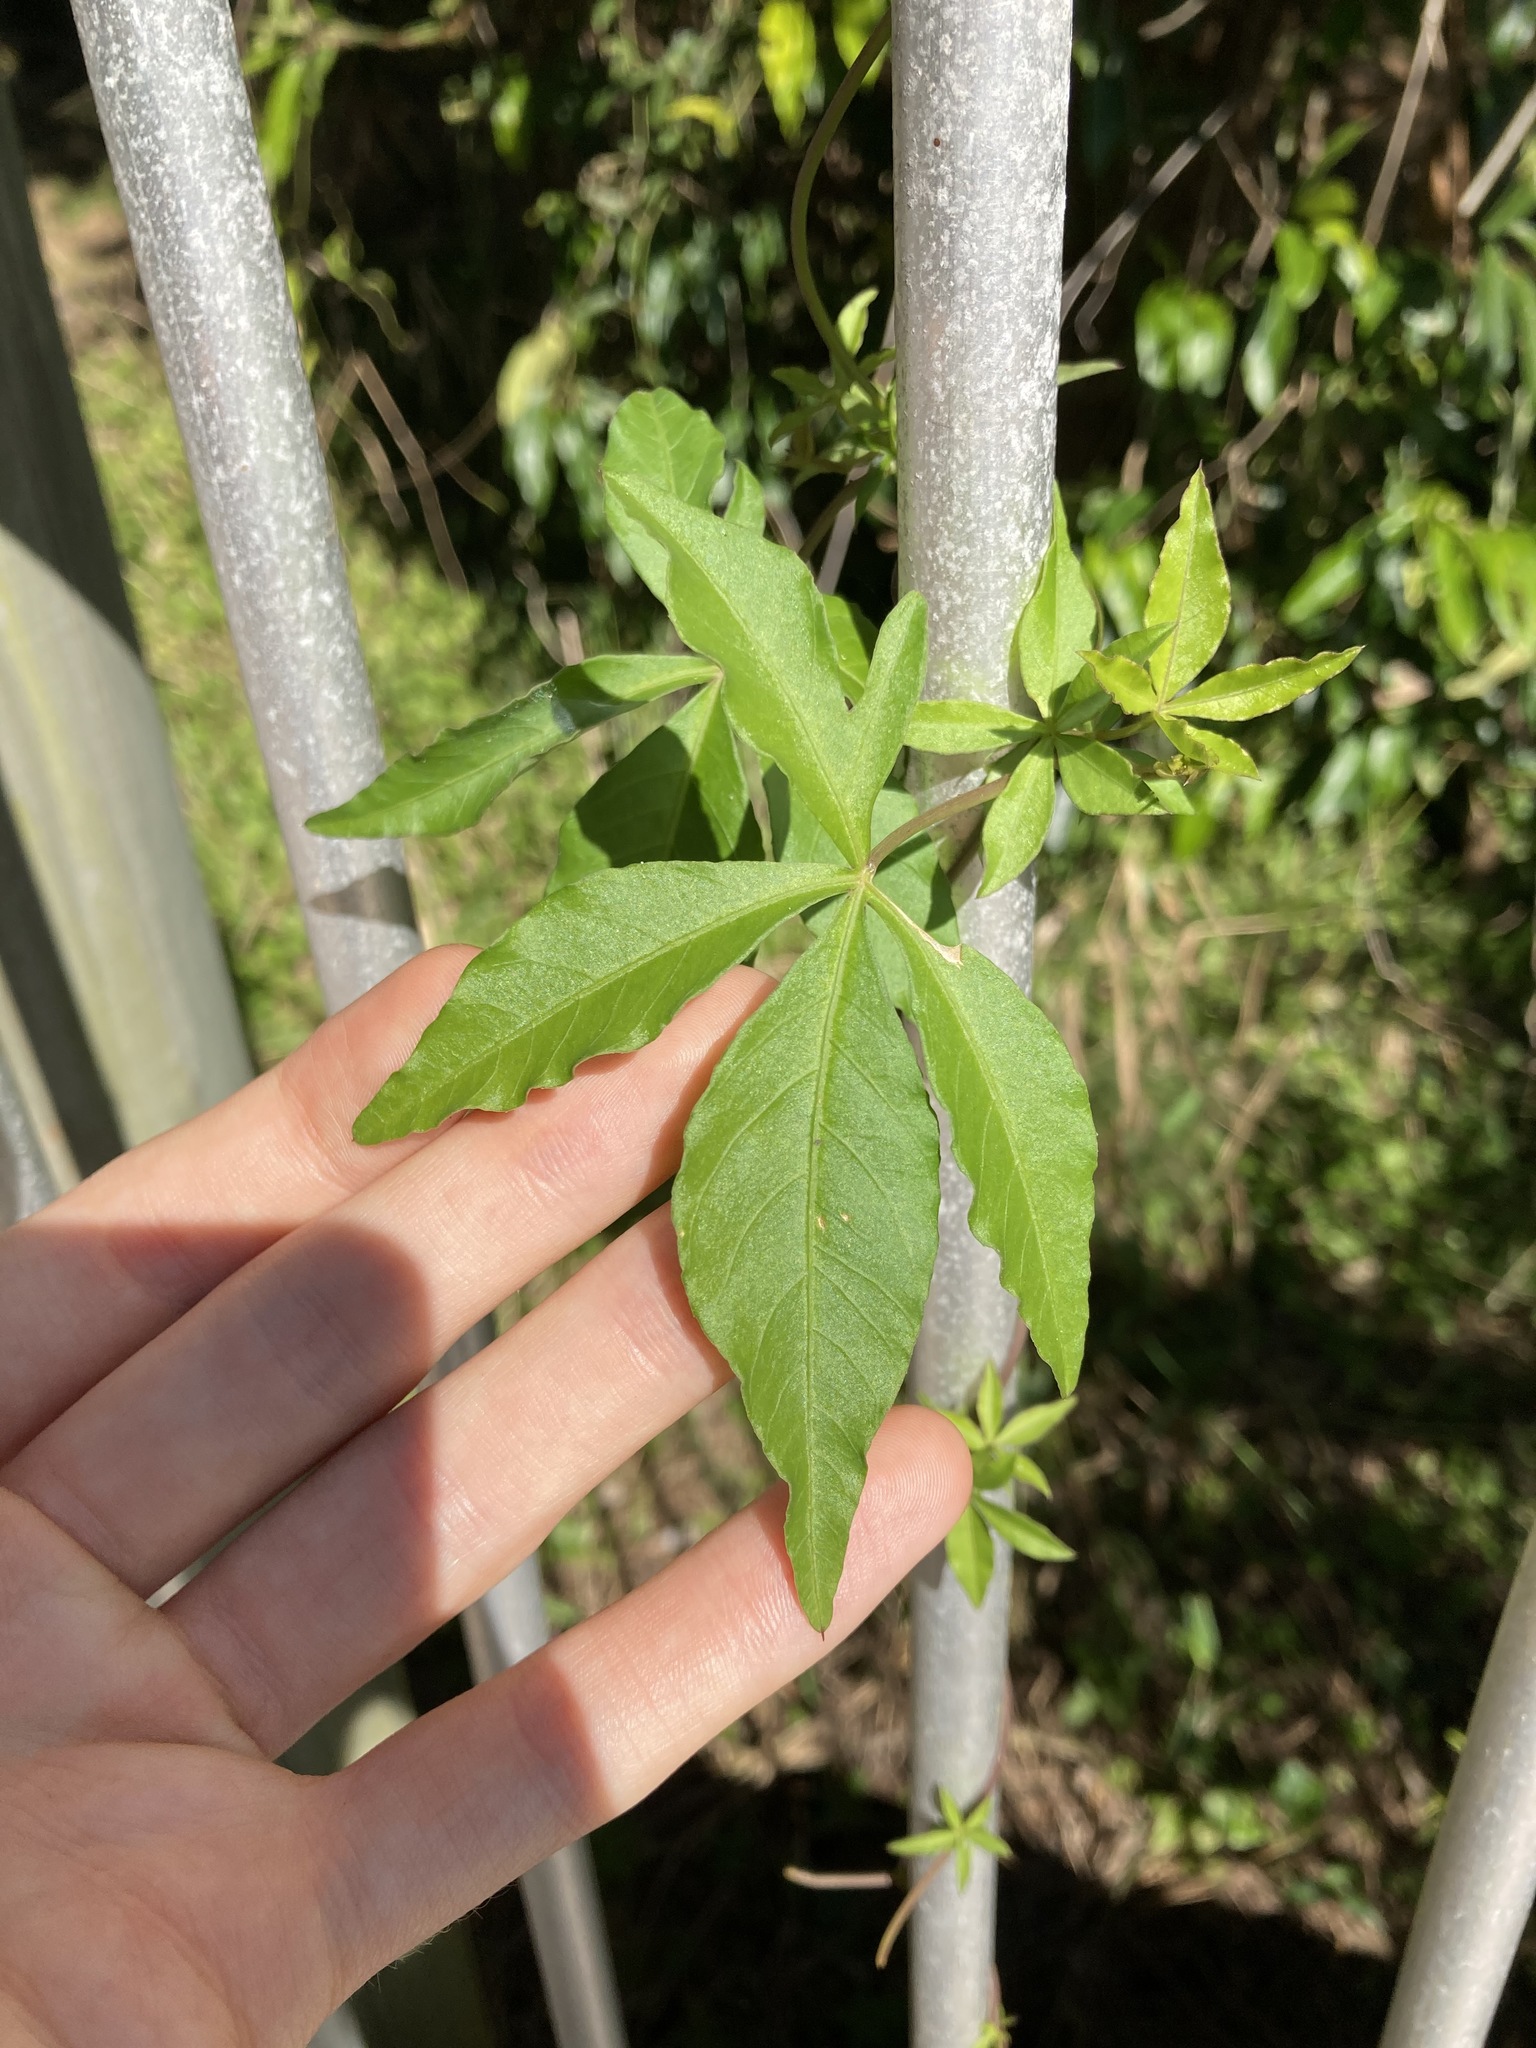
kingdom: Plantae
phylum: Tracheophyta
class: Magnoliopsida
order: Solanales
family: Convolvulaceae
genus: Ipomoea
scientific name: Ipomoea cairica
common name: Mile a minute vine
